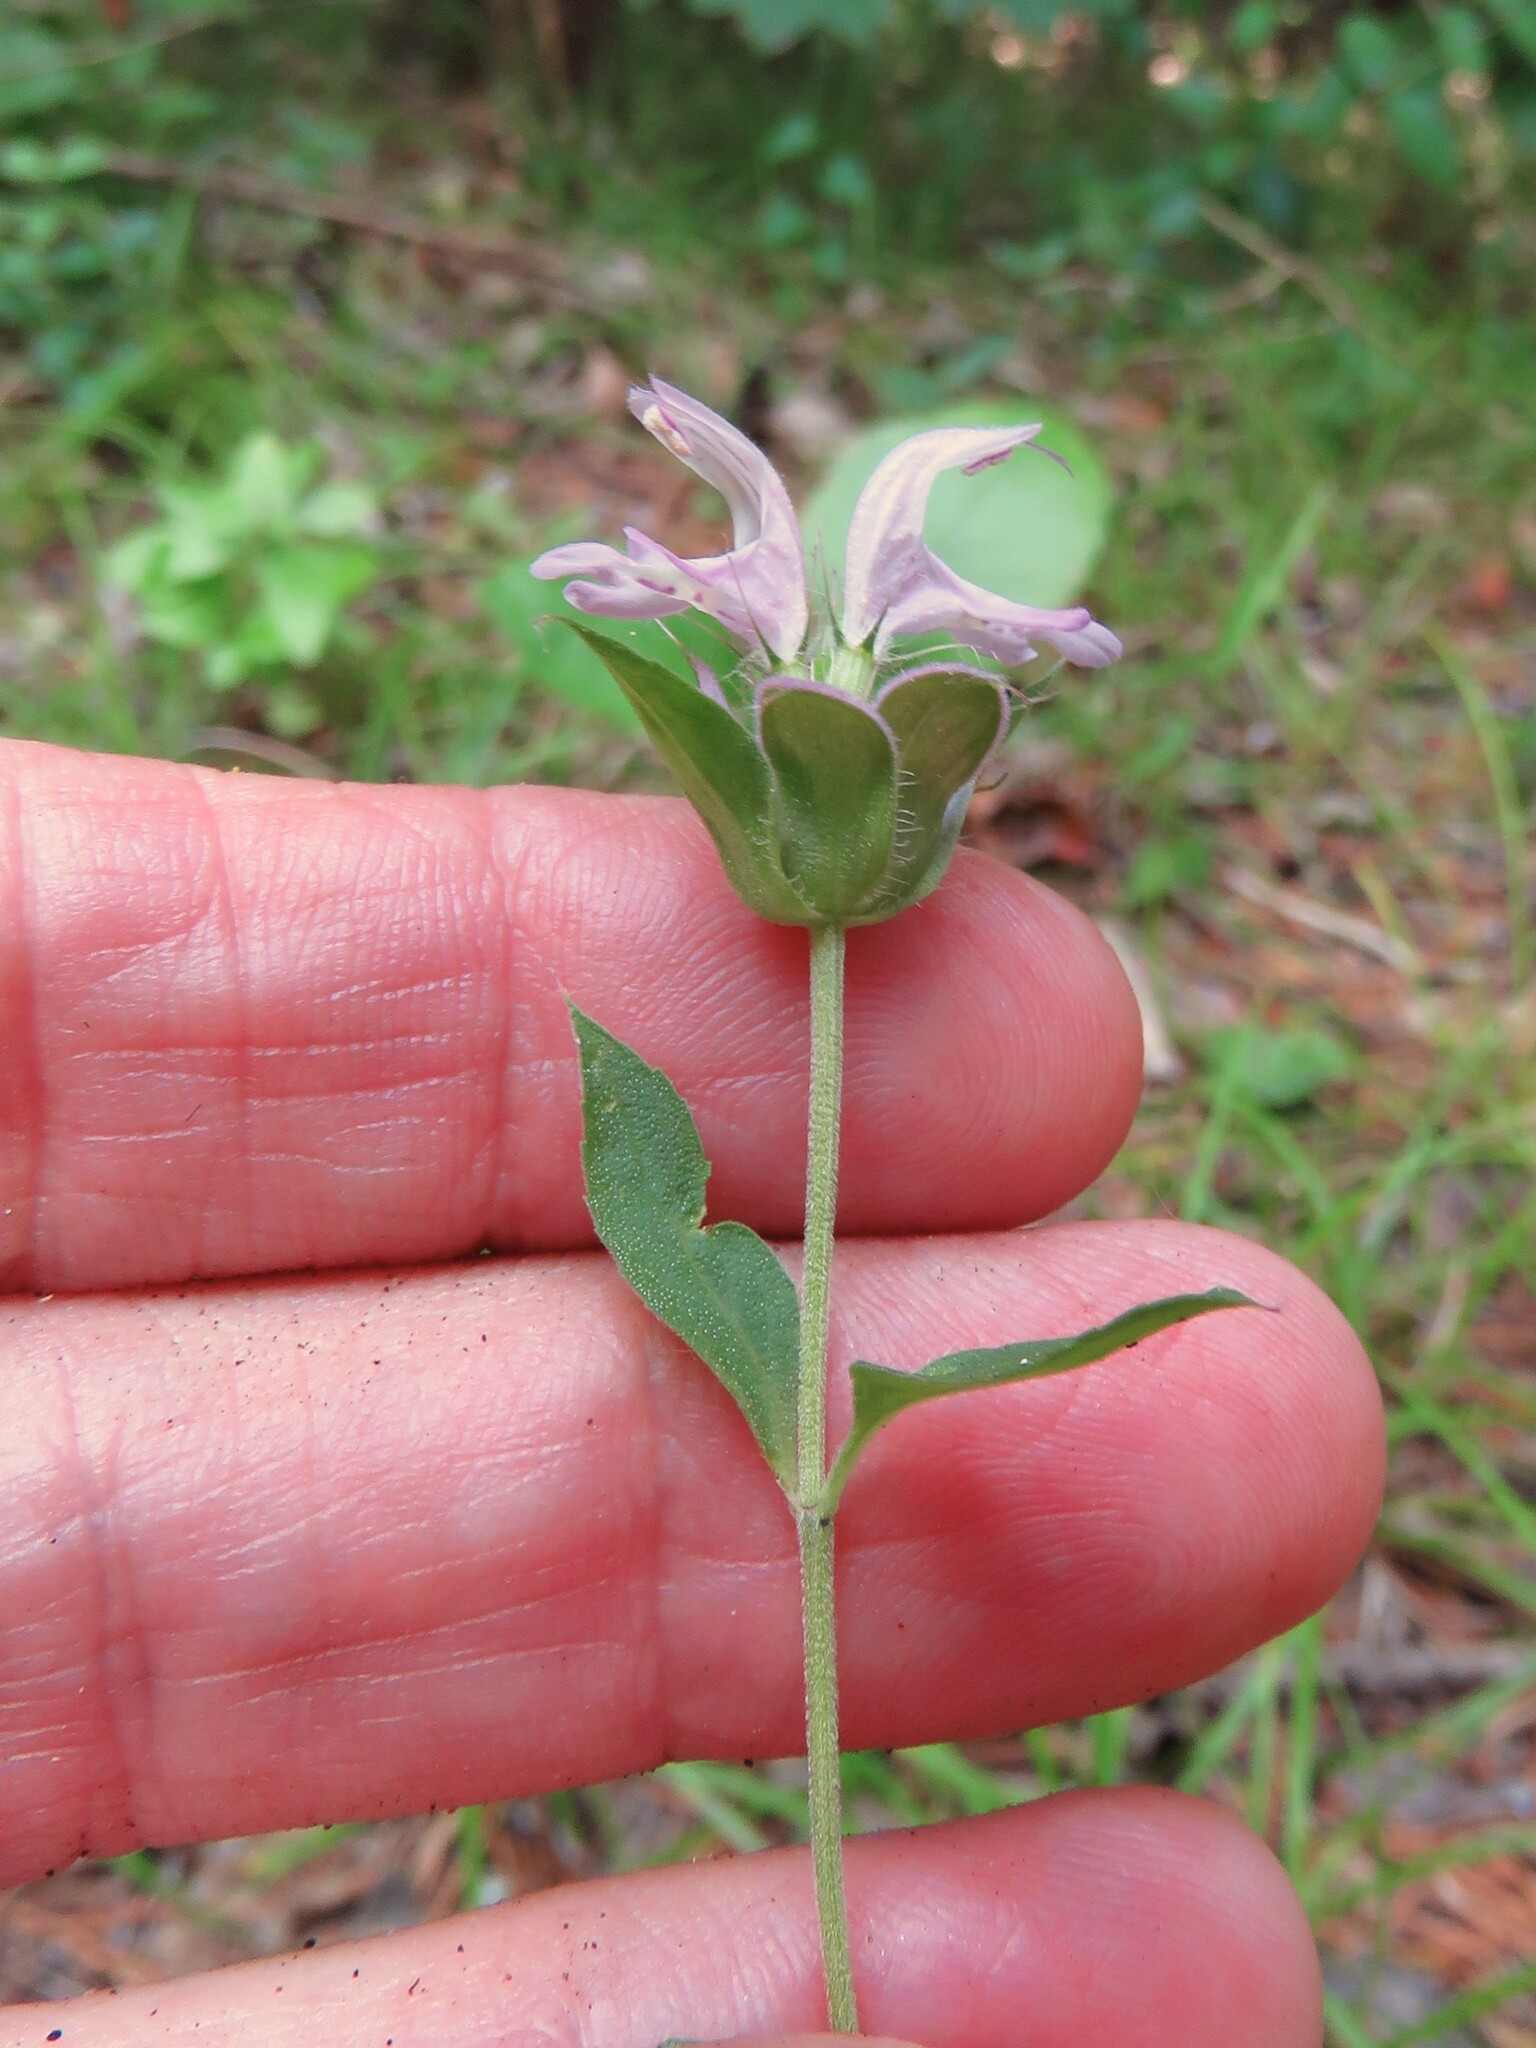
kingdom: Plantae
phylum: Tracheophyta
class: Magnoliopsida
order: Lamiales
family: Lamiaceae
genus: Monarda
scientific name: Monarda citriodora
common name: Lemon beebalm
